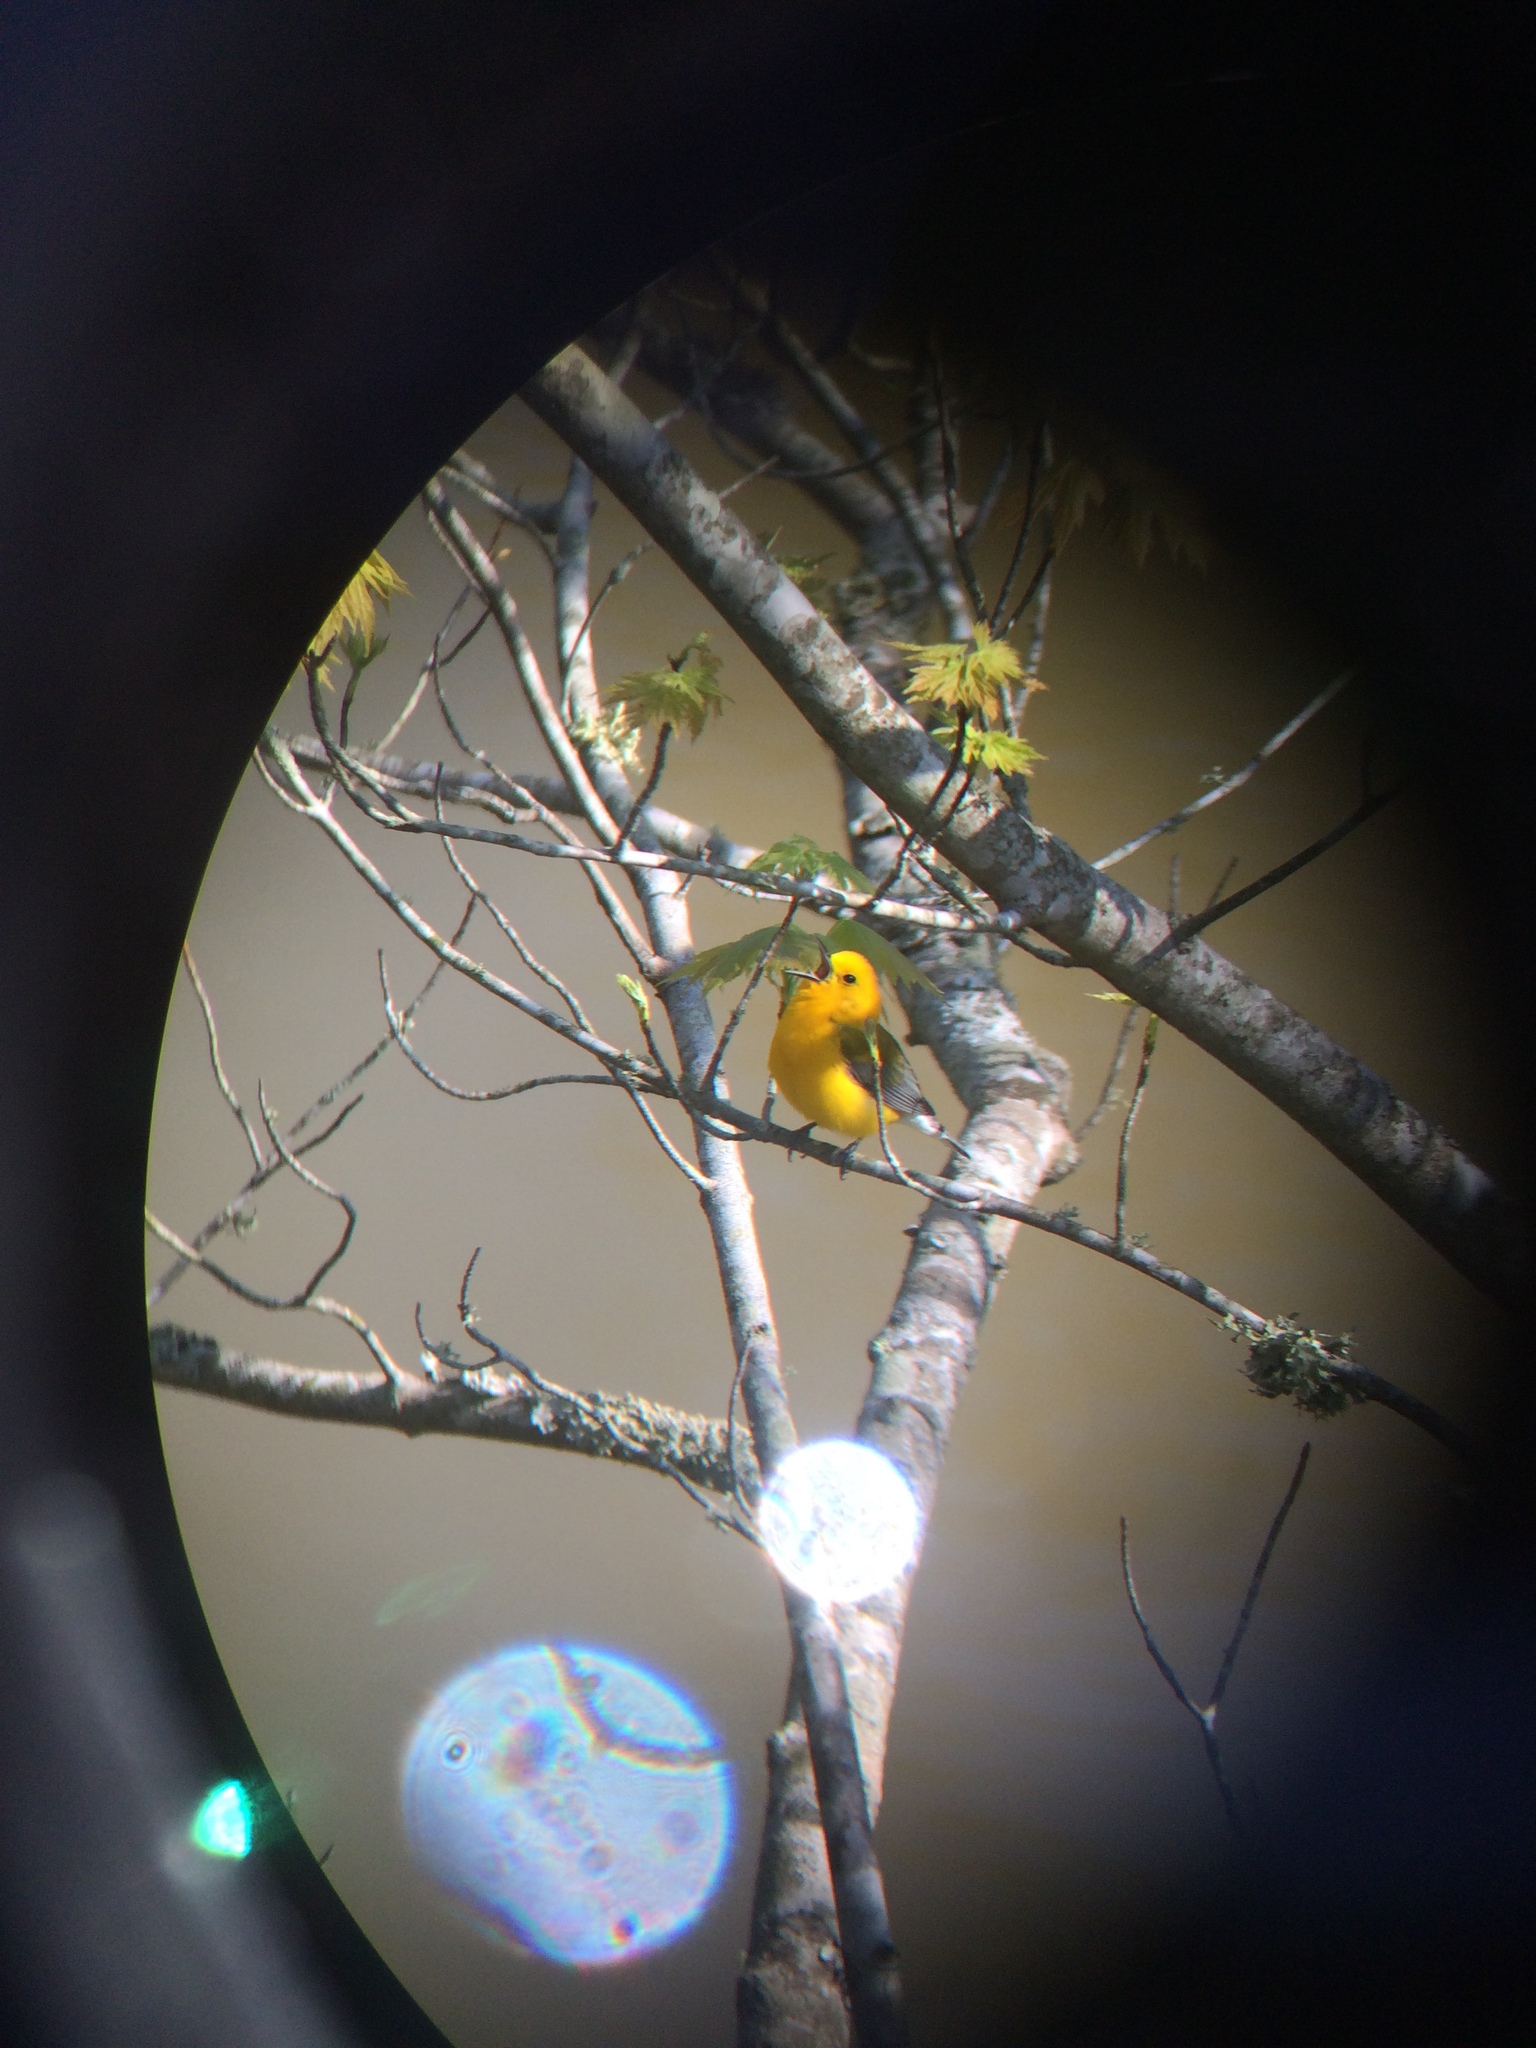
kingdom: Animalia
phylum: Chordata
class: Aves
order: Passeriformes
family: Parulidae
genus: Protonotaria
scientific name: Protonotaria citrea
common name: Prothonotary warbler
